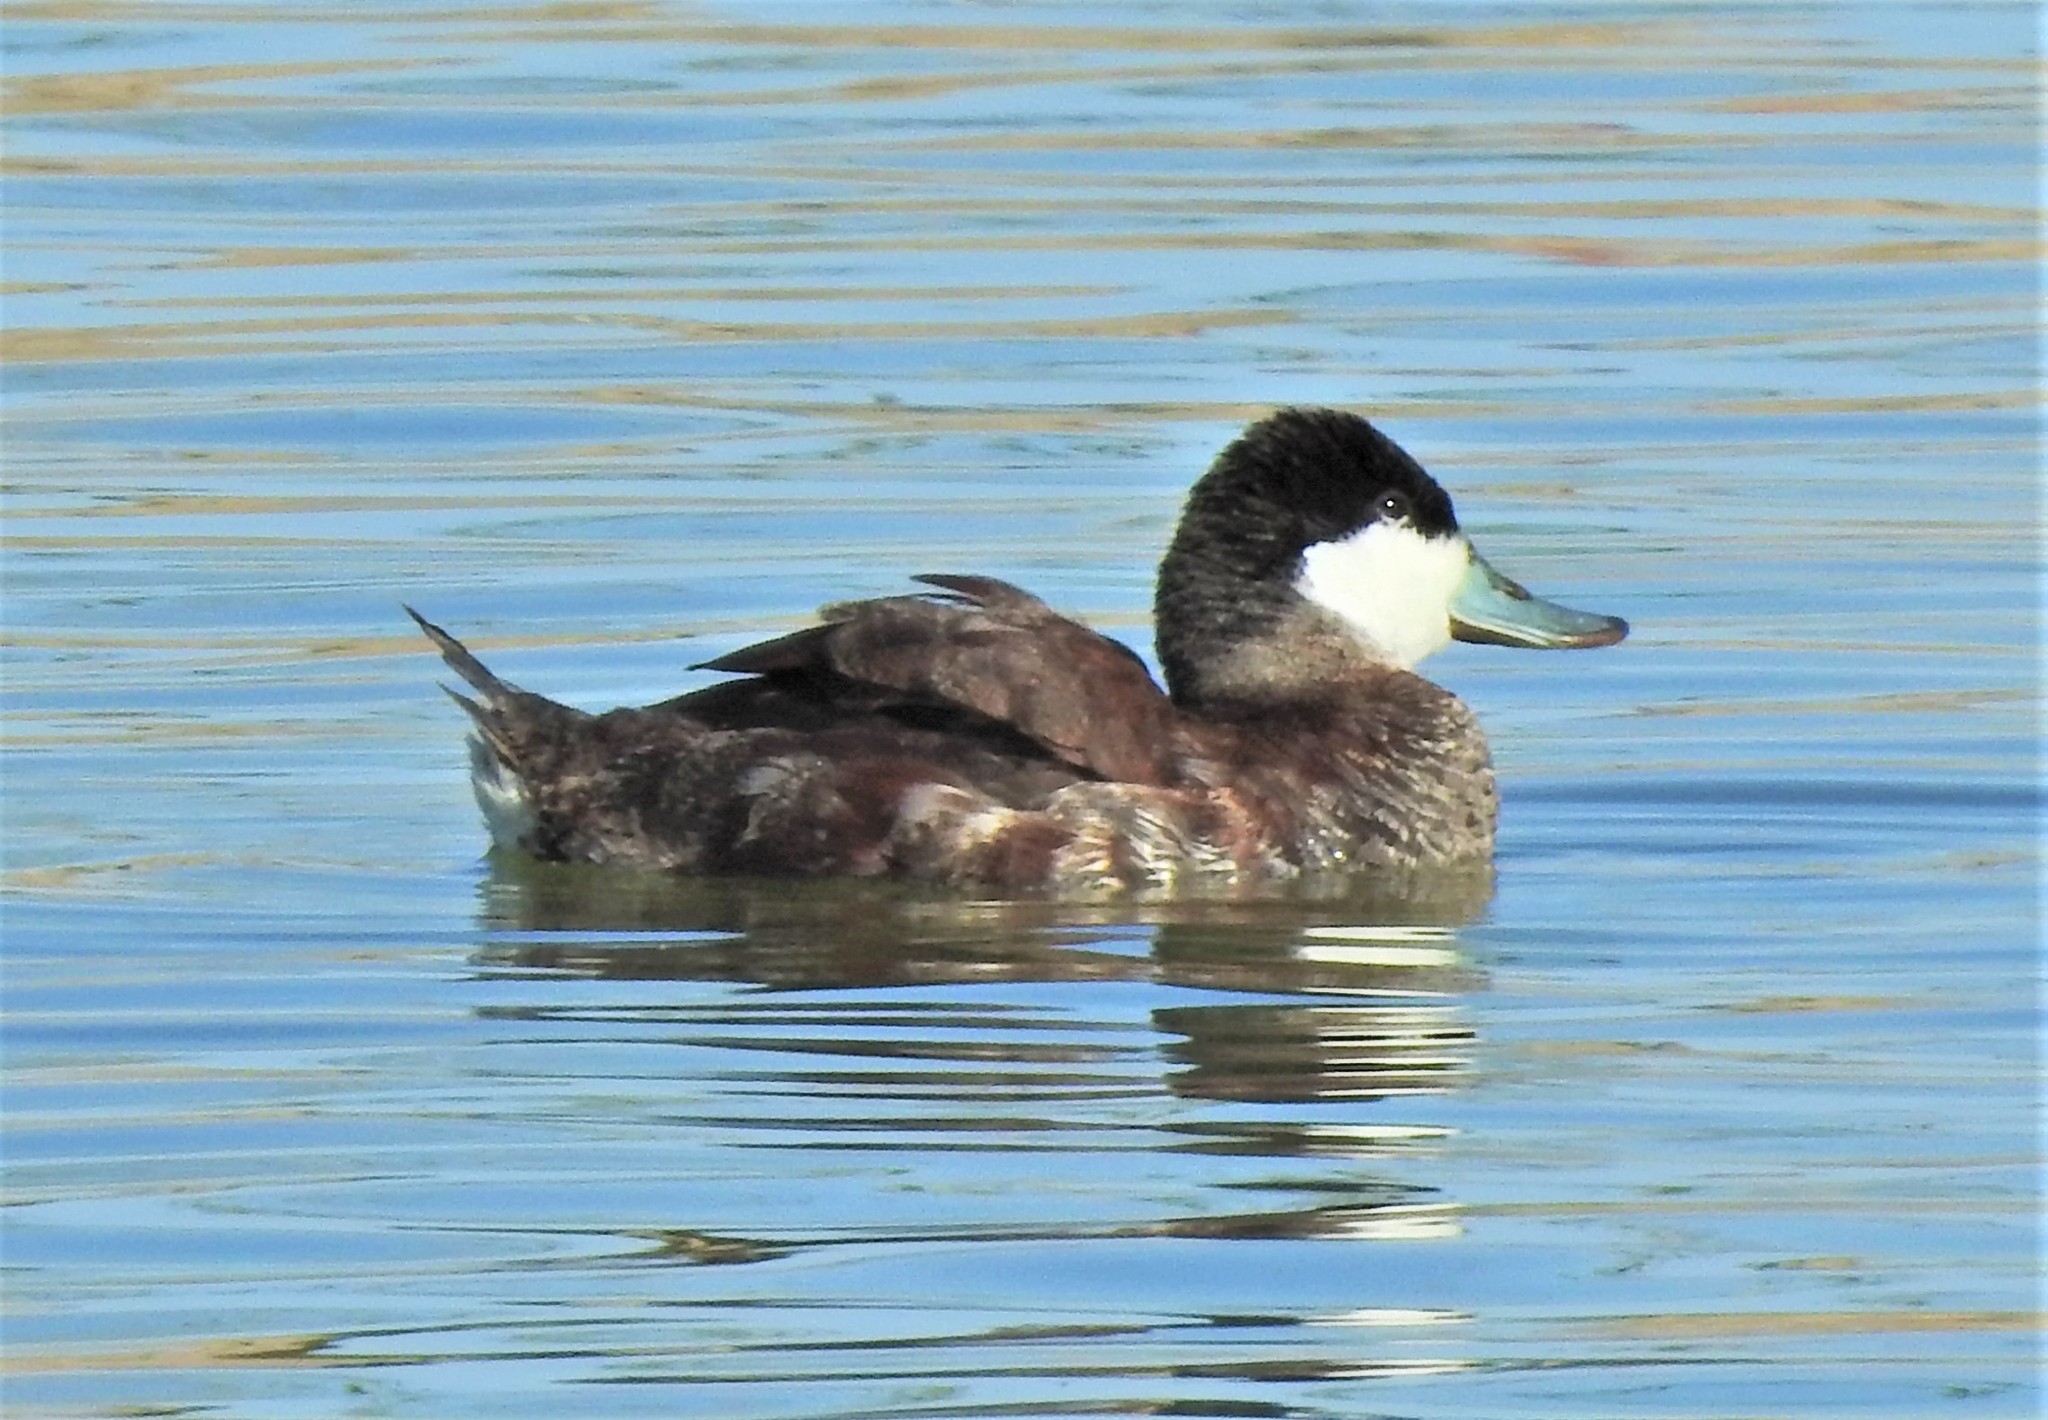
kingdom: Animalia
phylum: Chordata
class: Aves
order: Anseriformes
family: Anatidae
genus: Oxyura
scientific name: Oxyura jamaicensis
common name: Ruddy duck
